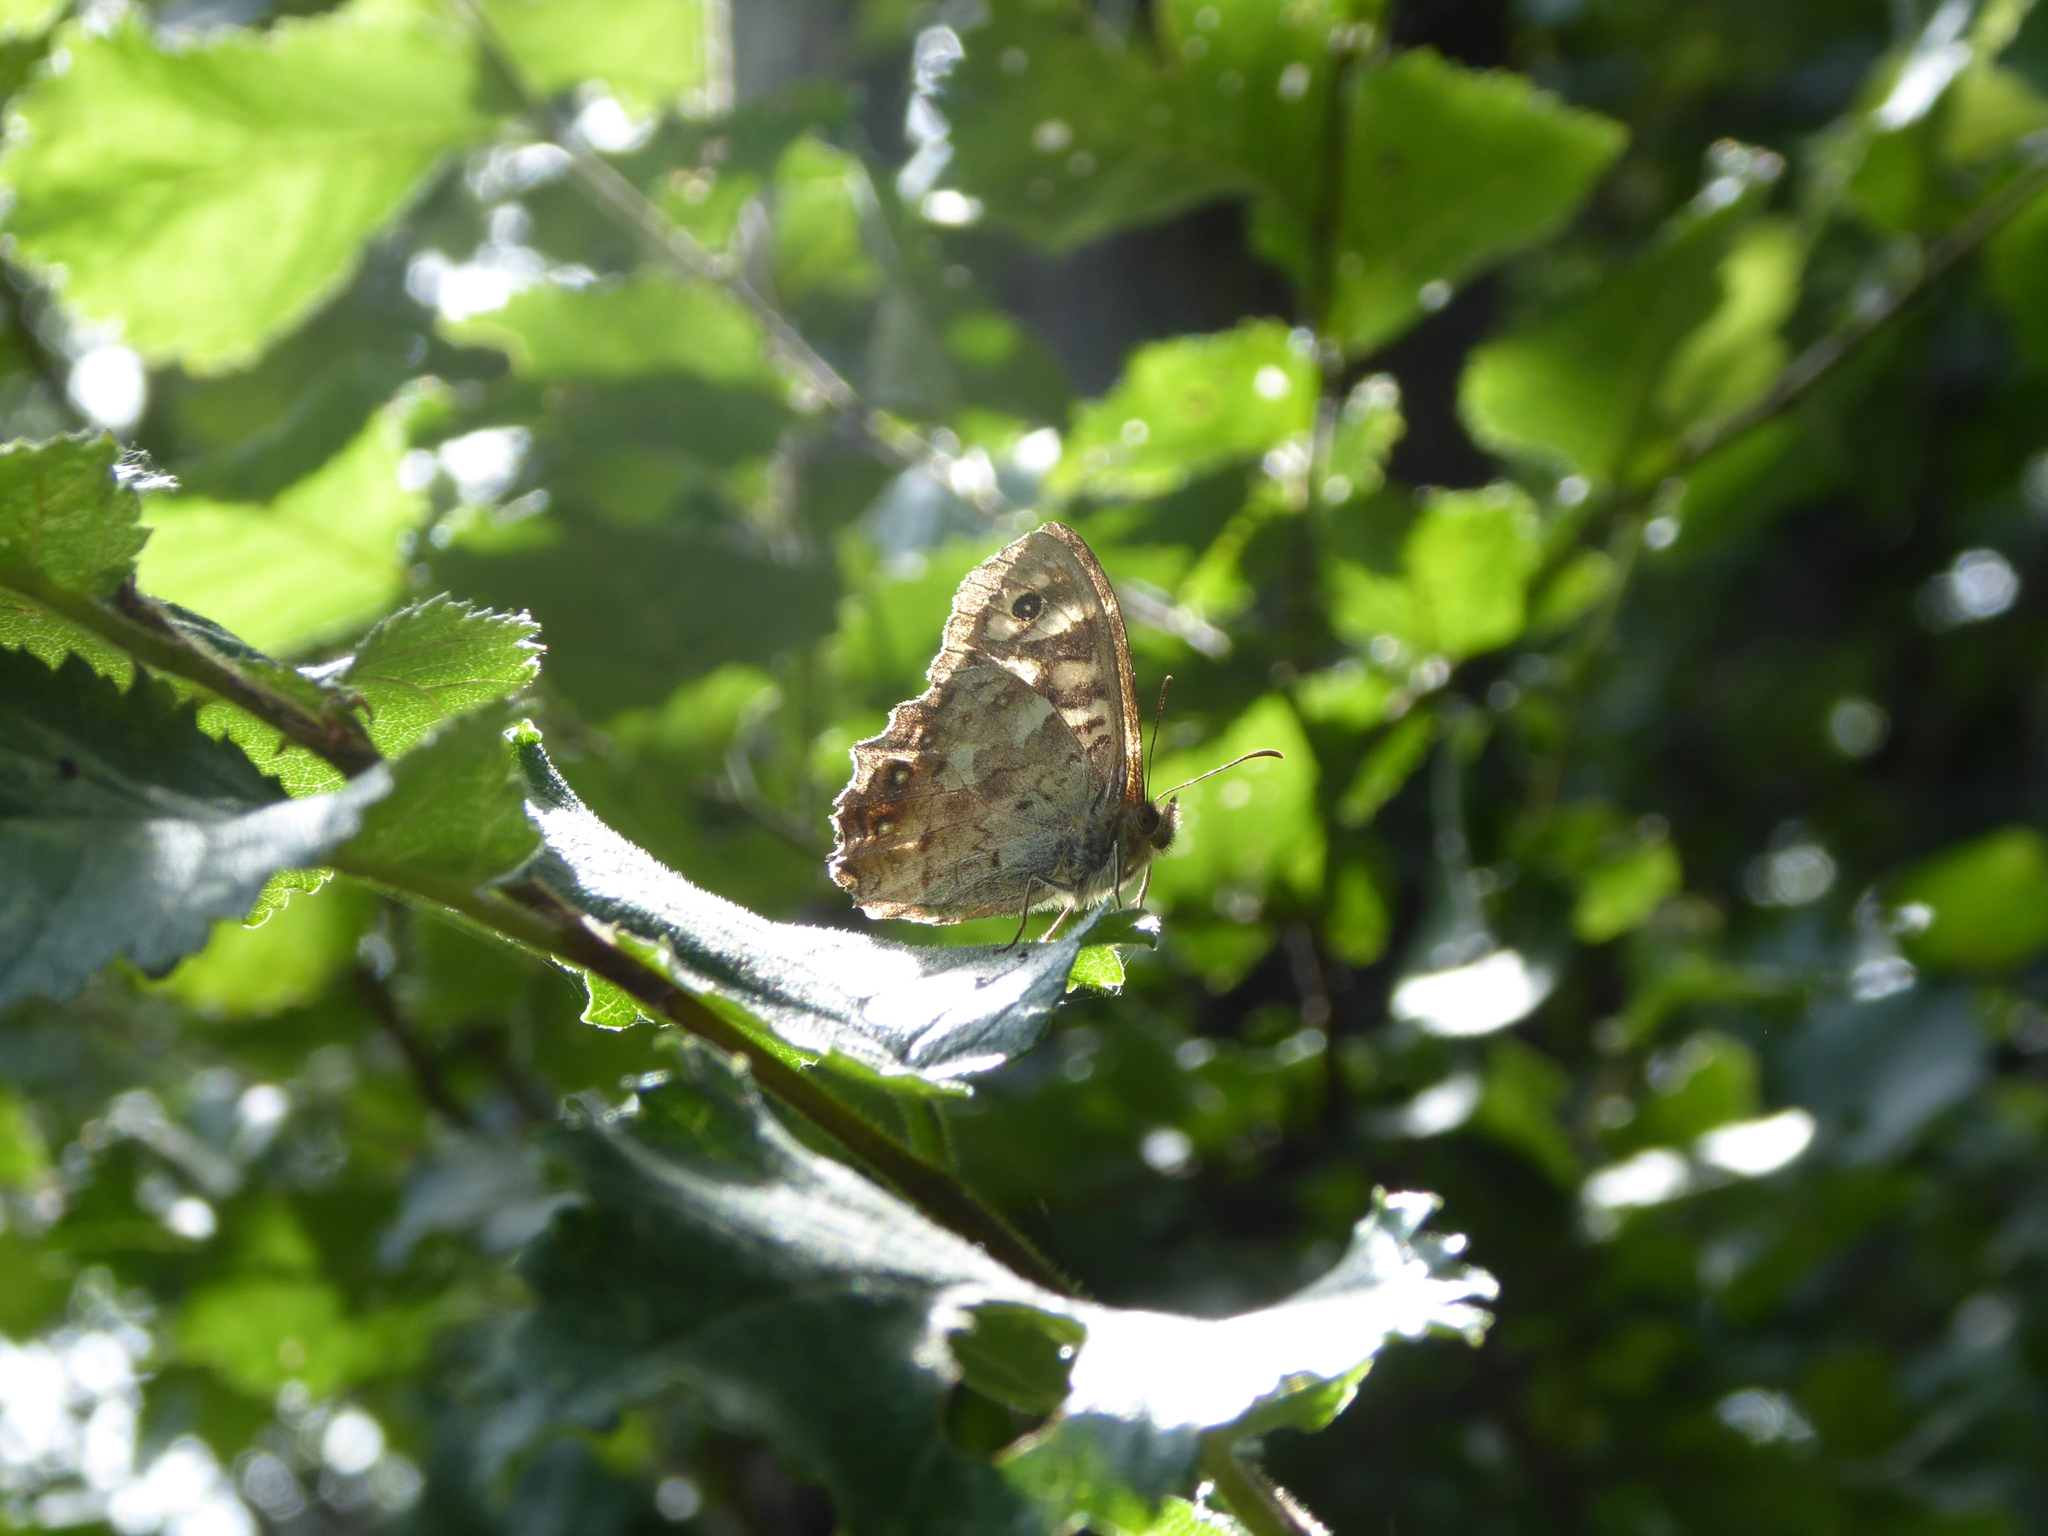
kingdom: Animalia
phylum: Arthropoda
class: Insecta
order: Lepidoptera
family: Nymphalidae
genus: Pararge
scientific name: Pararge aegeria
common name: Speckled wood
